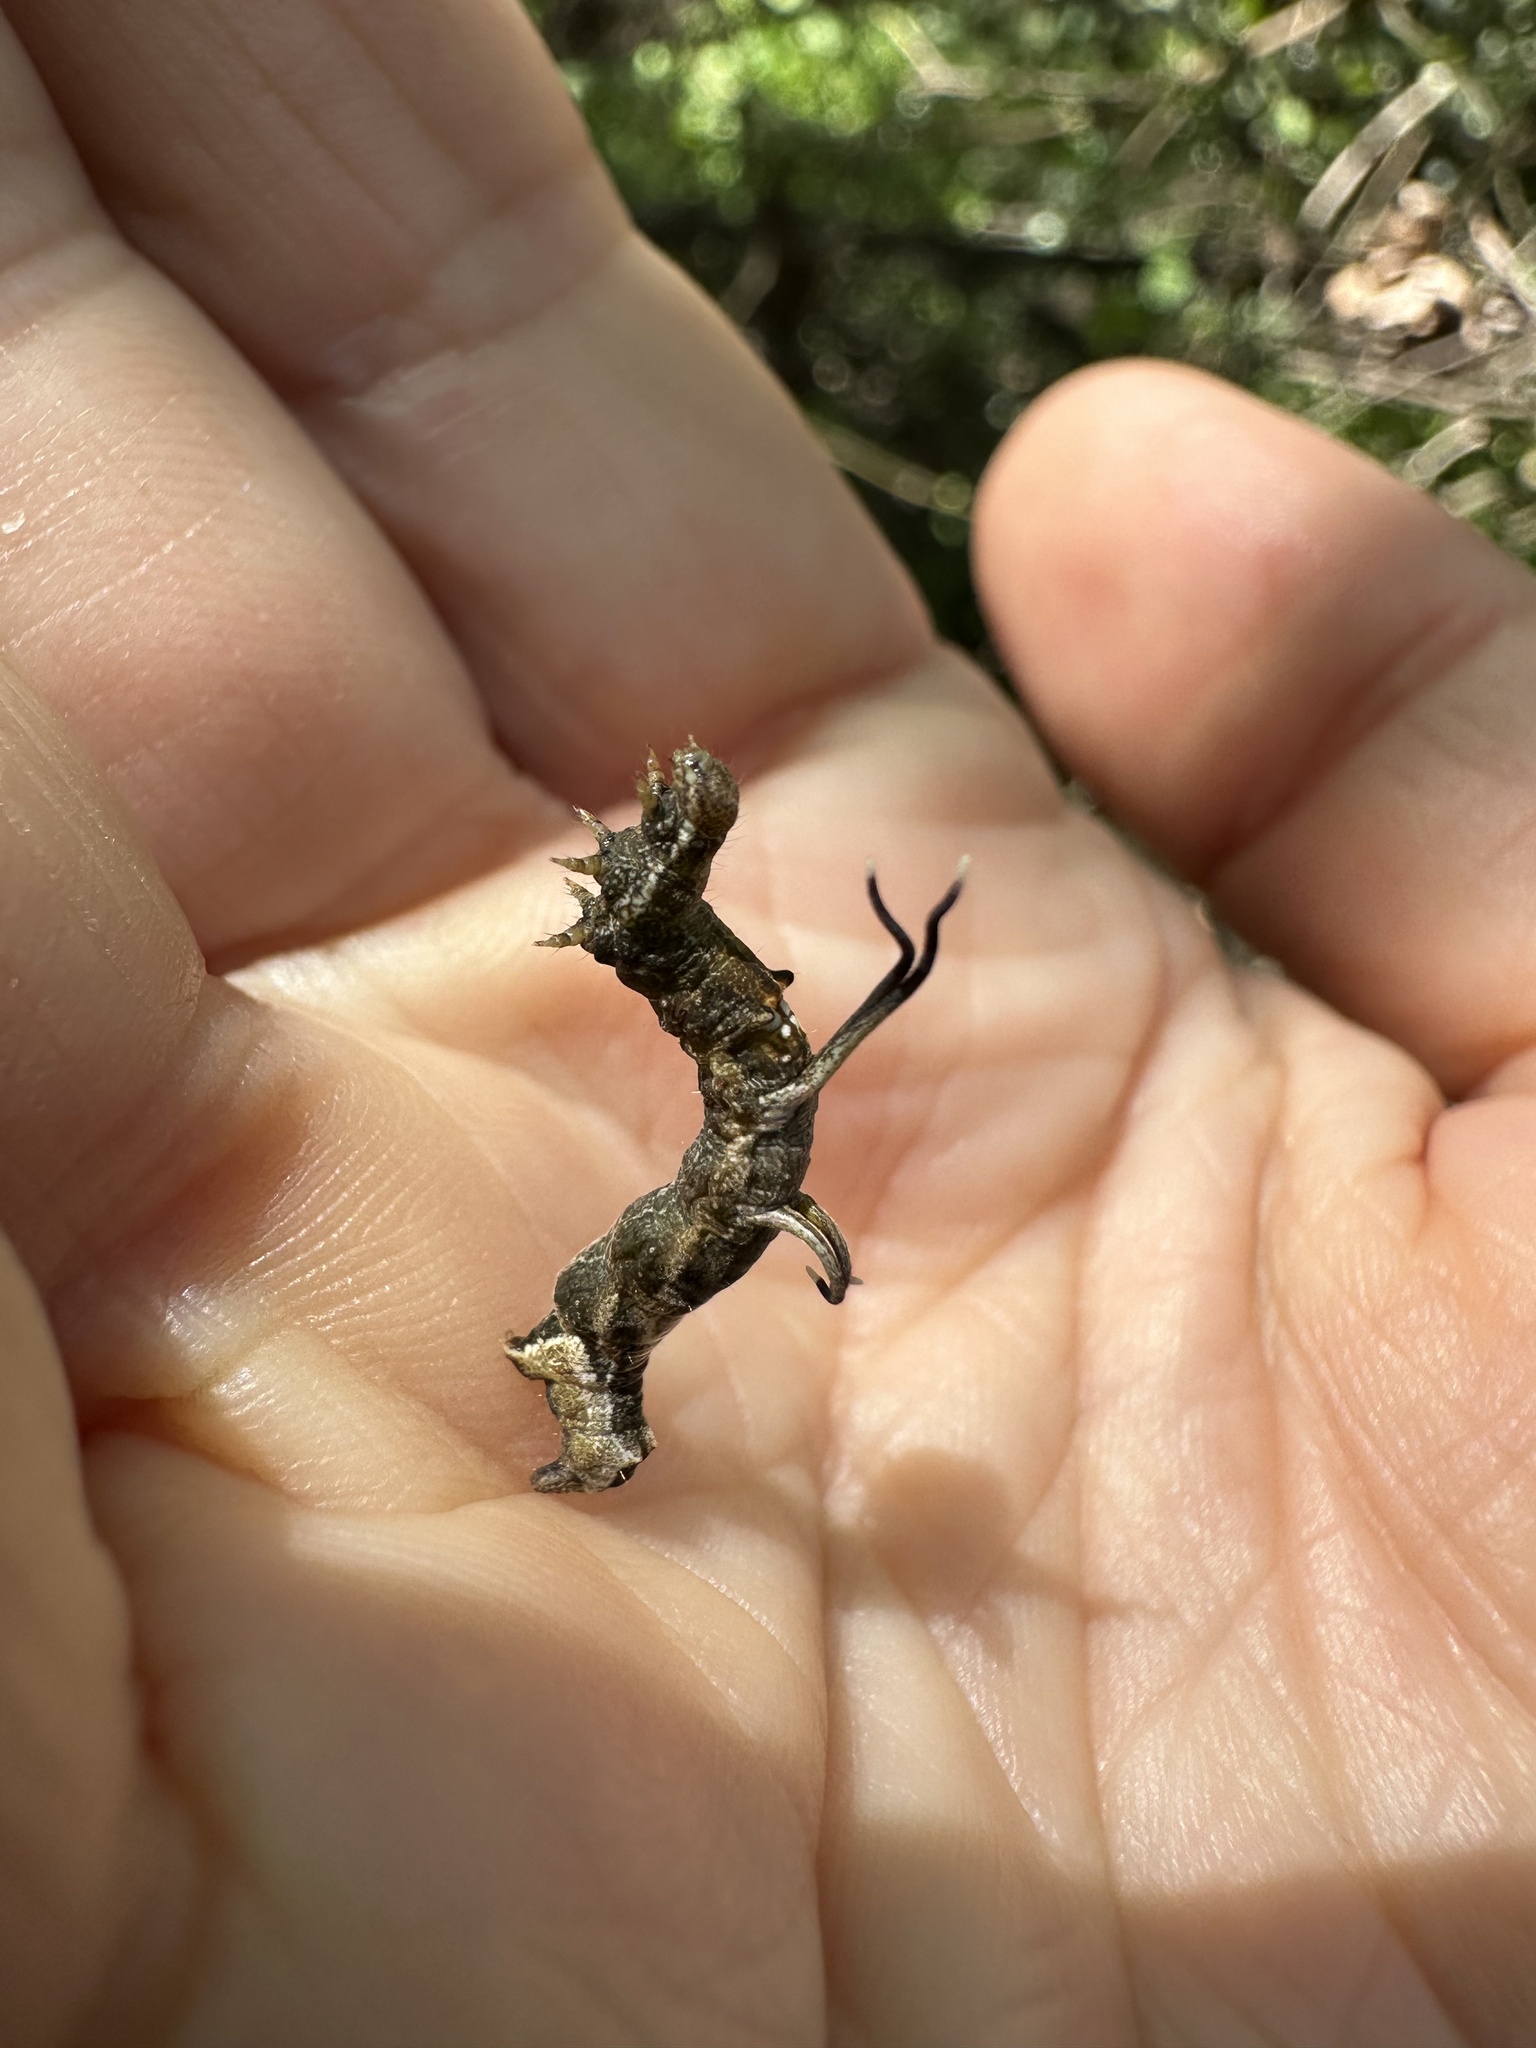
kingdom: Animalia
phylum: Arthropoda
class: Insecta
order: Lepidoptera
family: Geometridae
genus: Nematocampa
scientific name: Nematocampa resistaria
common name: Horned spanworm moth
